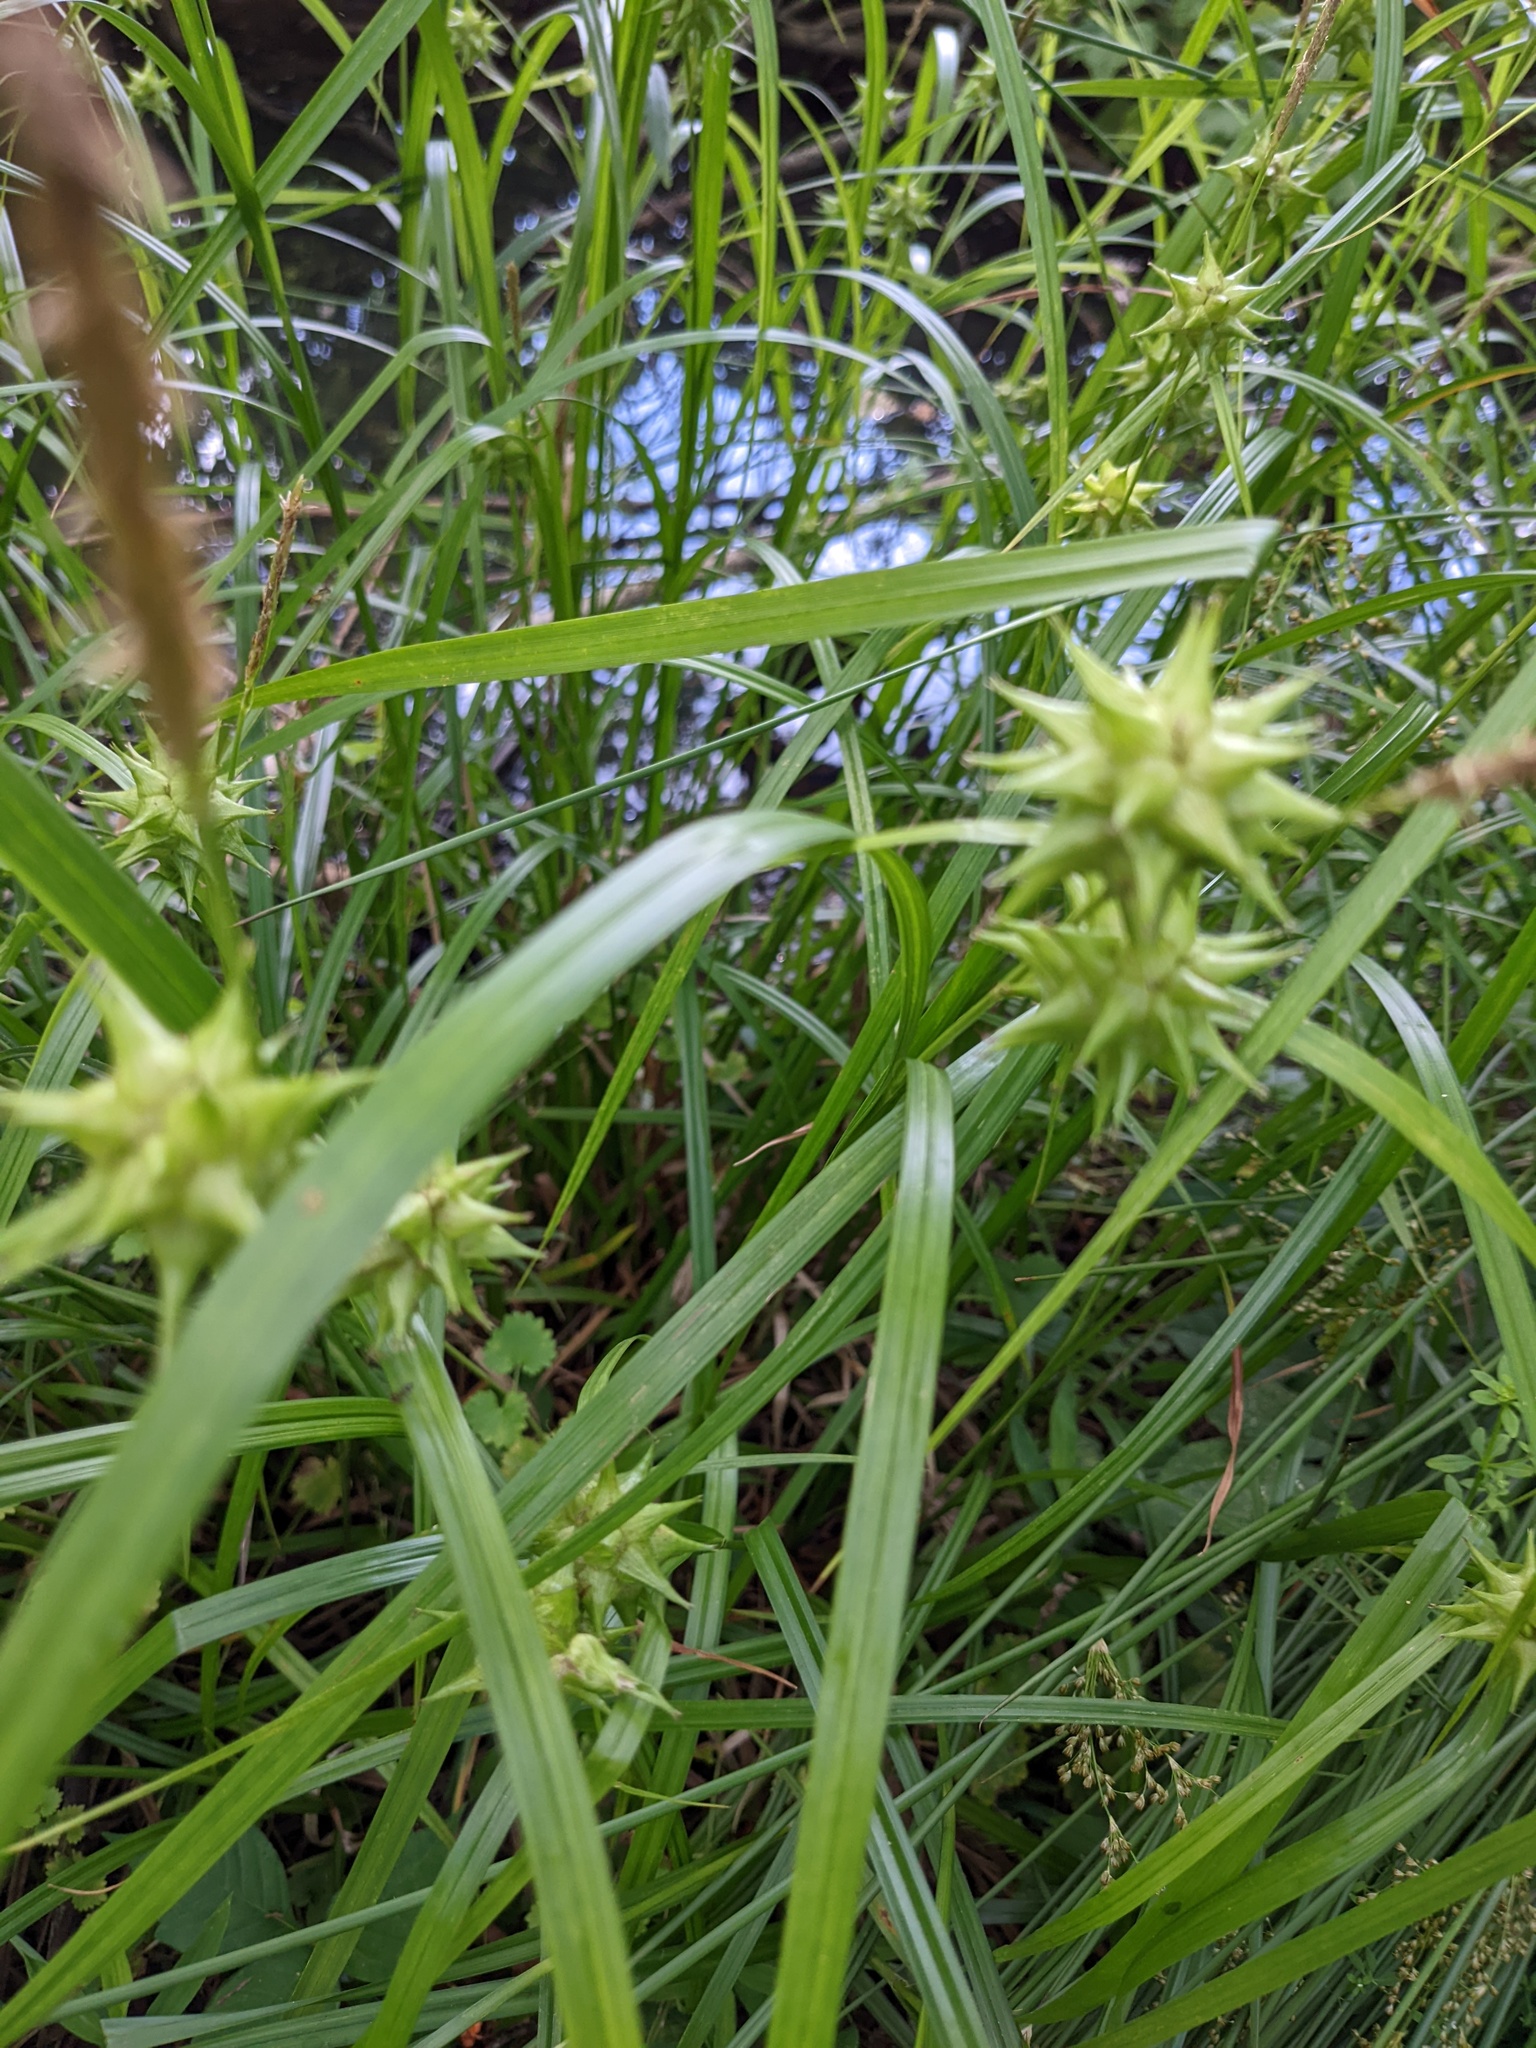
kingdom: Plantae
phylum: Tracheophyta
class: Liliopsida
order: Poales
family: Cyperaceae
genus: Carex
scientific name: Carex grayi
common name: Asa gray's sedge
